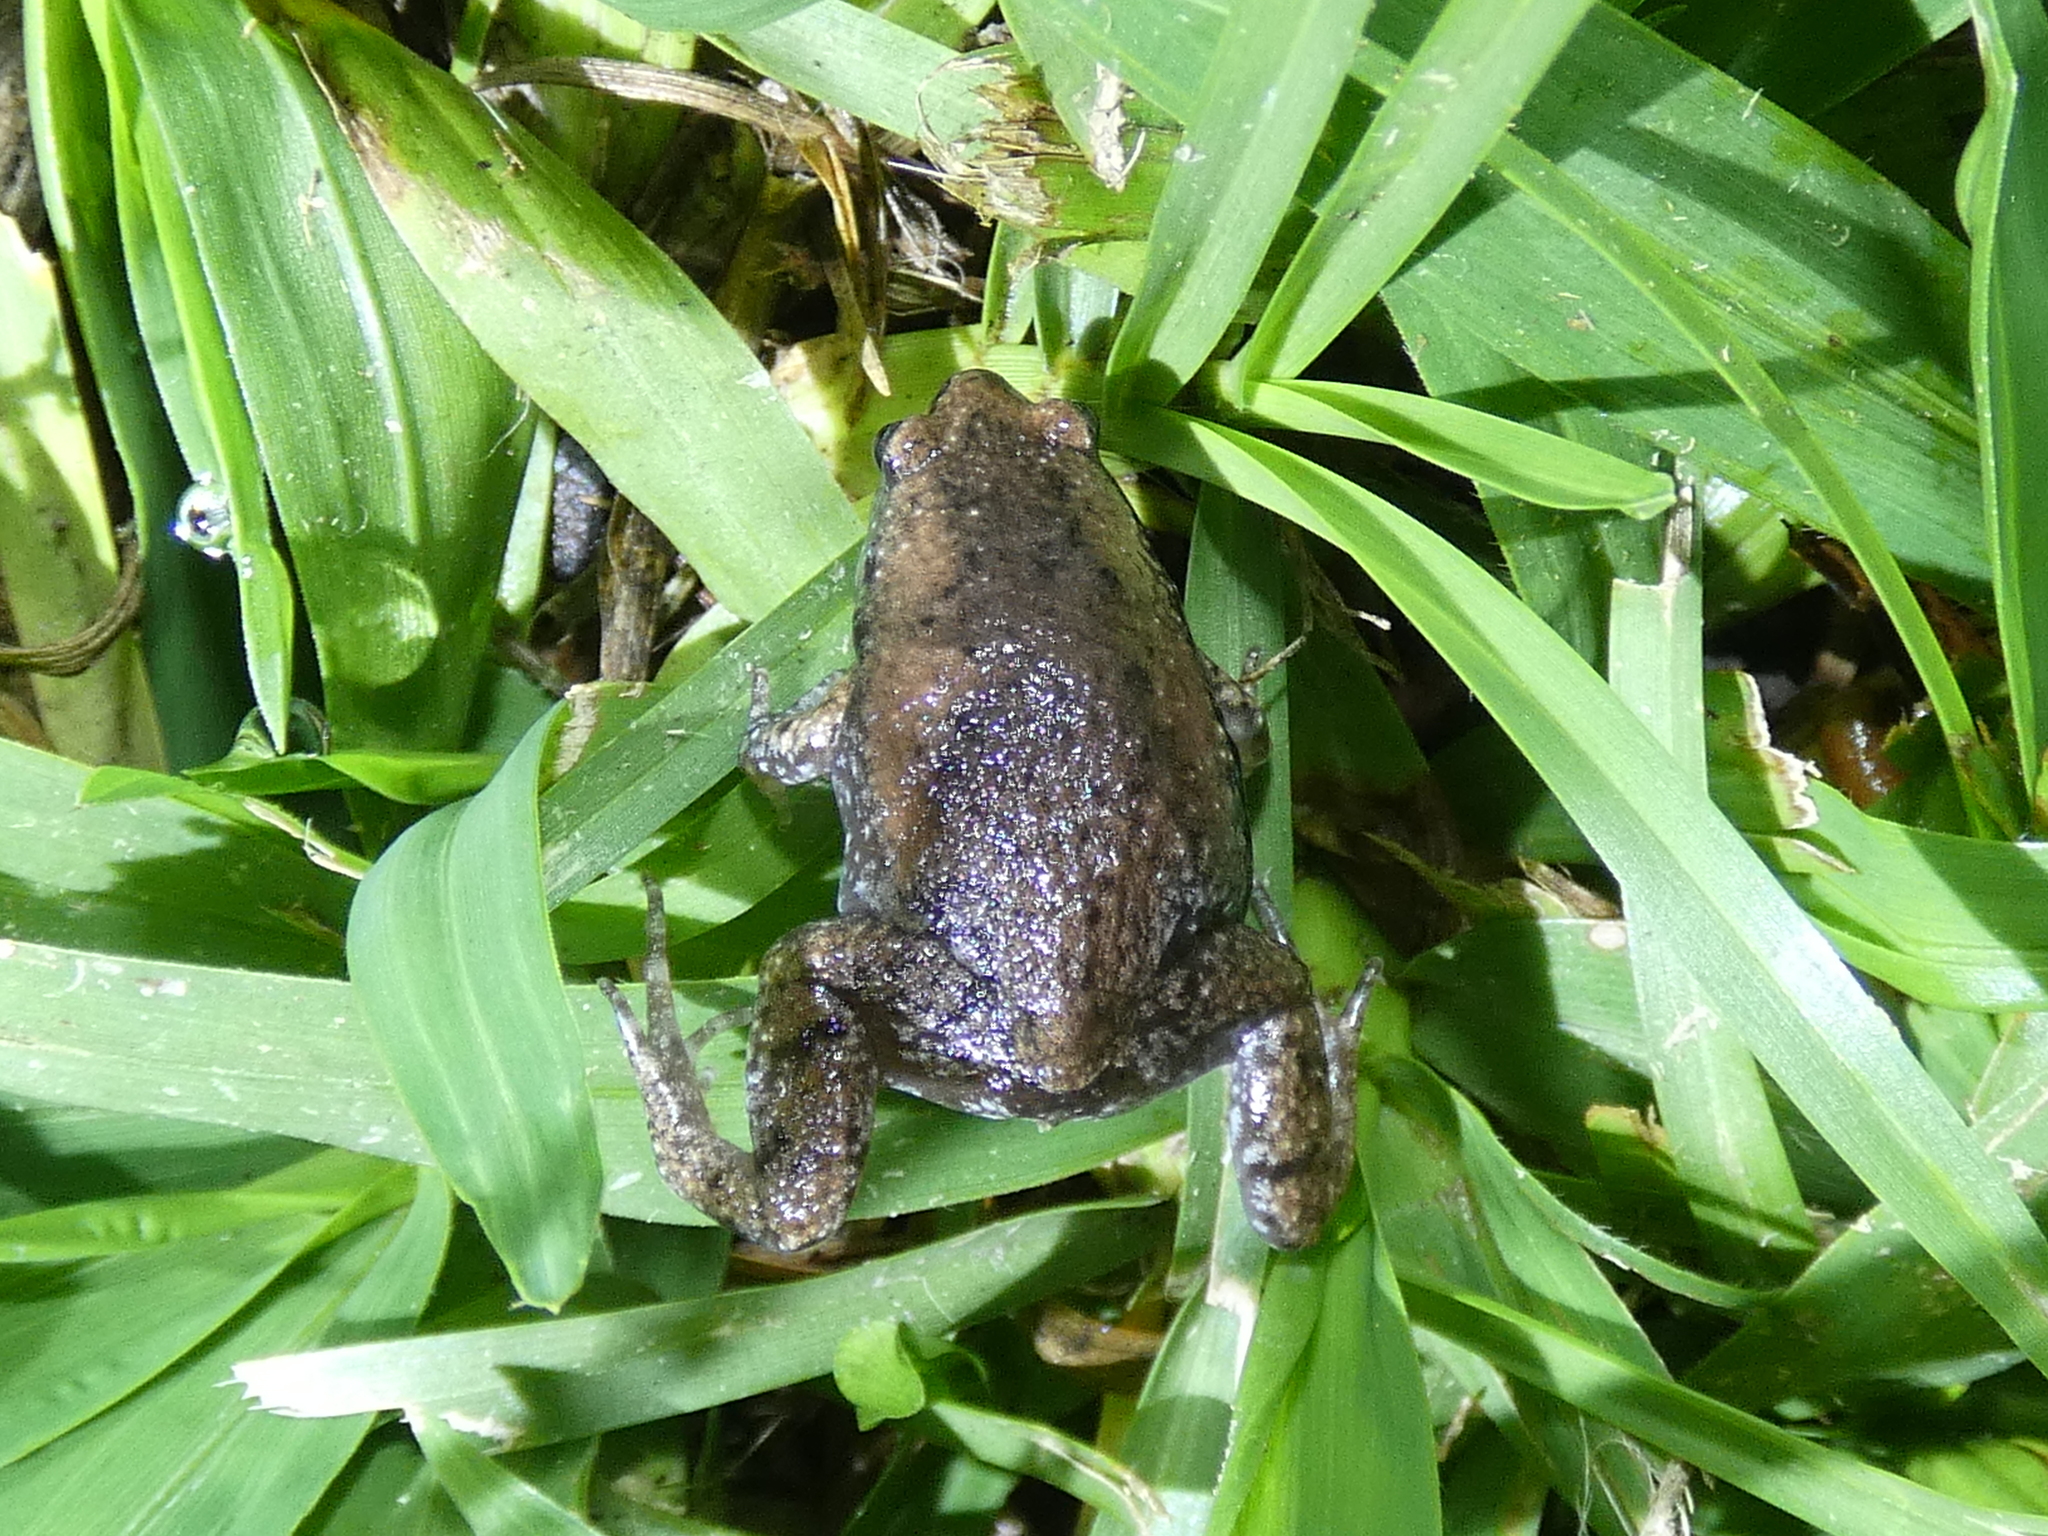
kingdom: Animalia
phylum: Chordata
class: Amphibia
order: Anura
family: Microhylidae
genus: Gastrophryne
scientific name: Gastrophryne carolinensis
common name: Eastern narrowmouth toad
